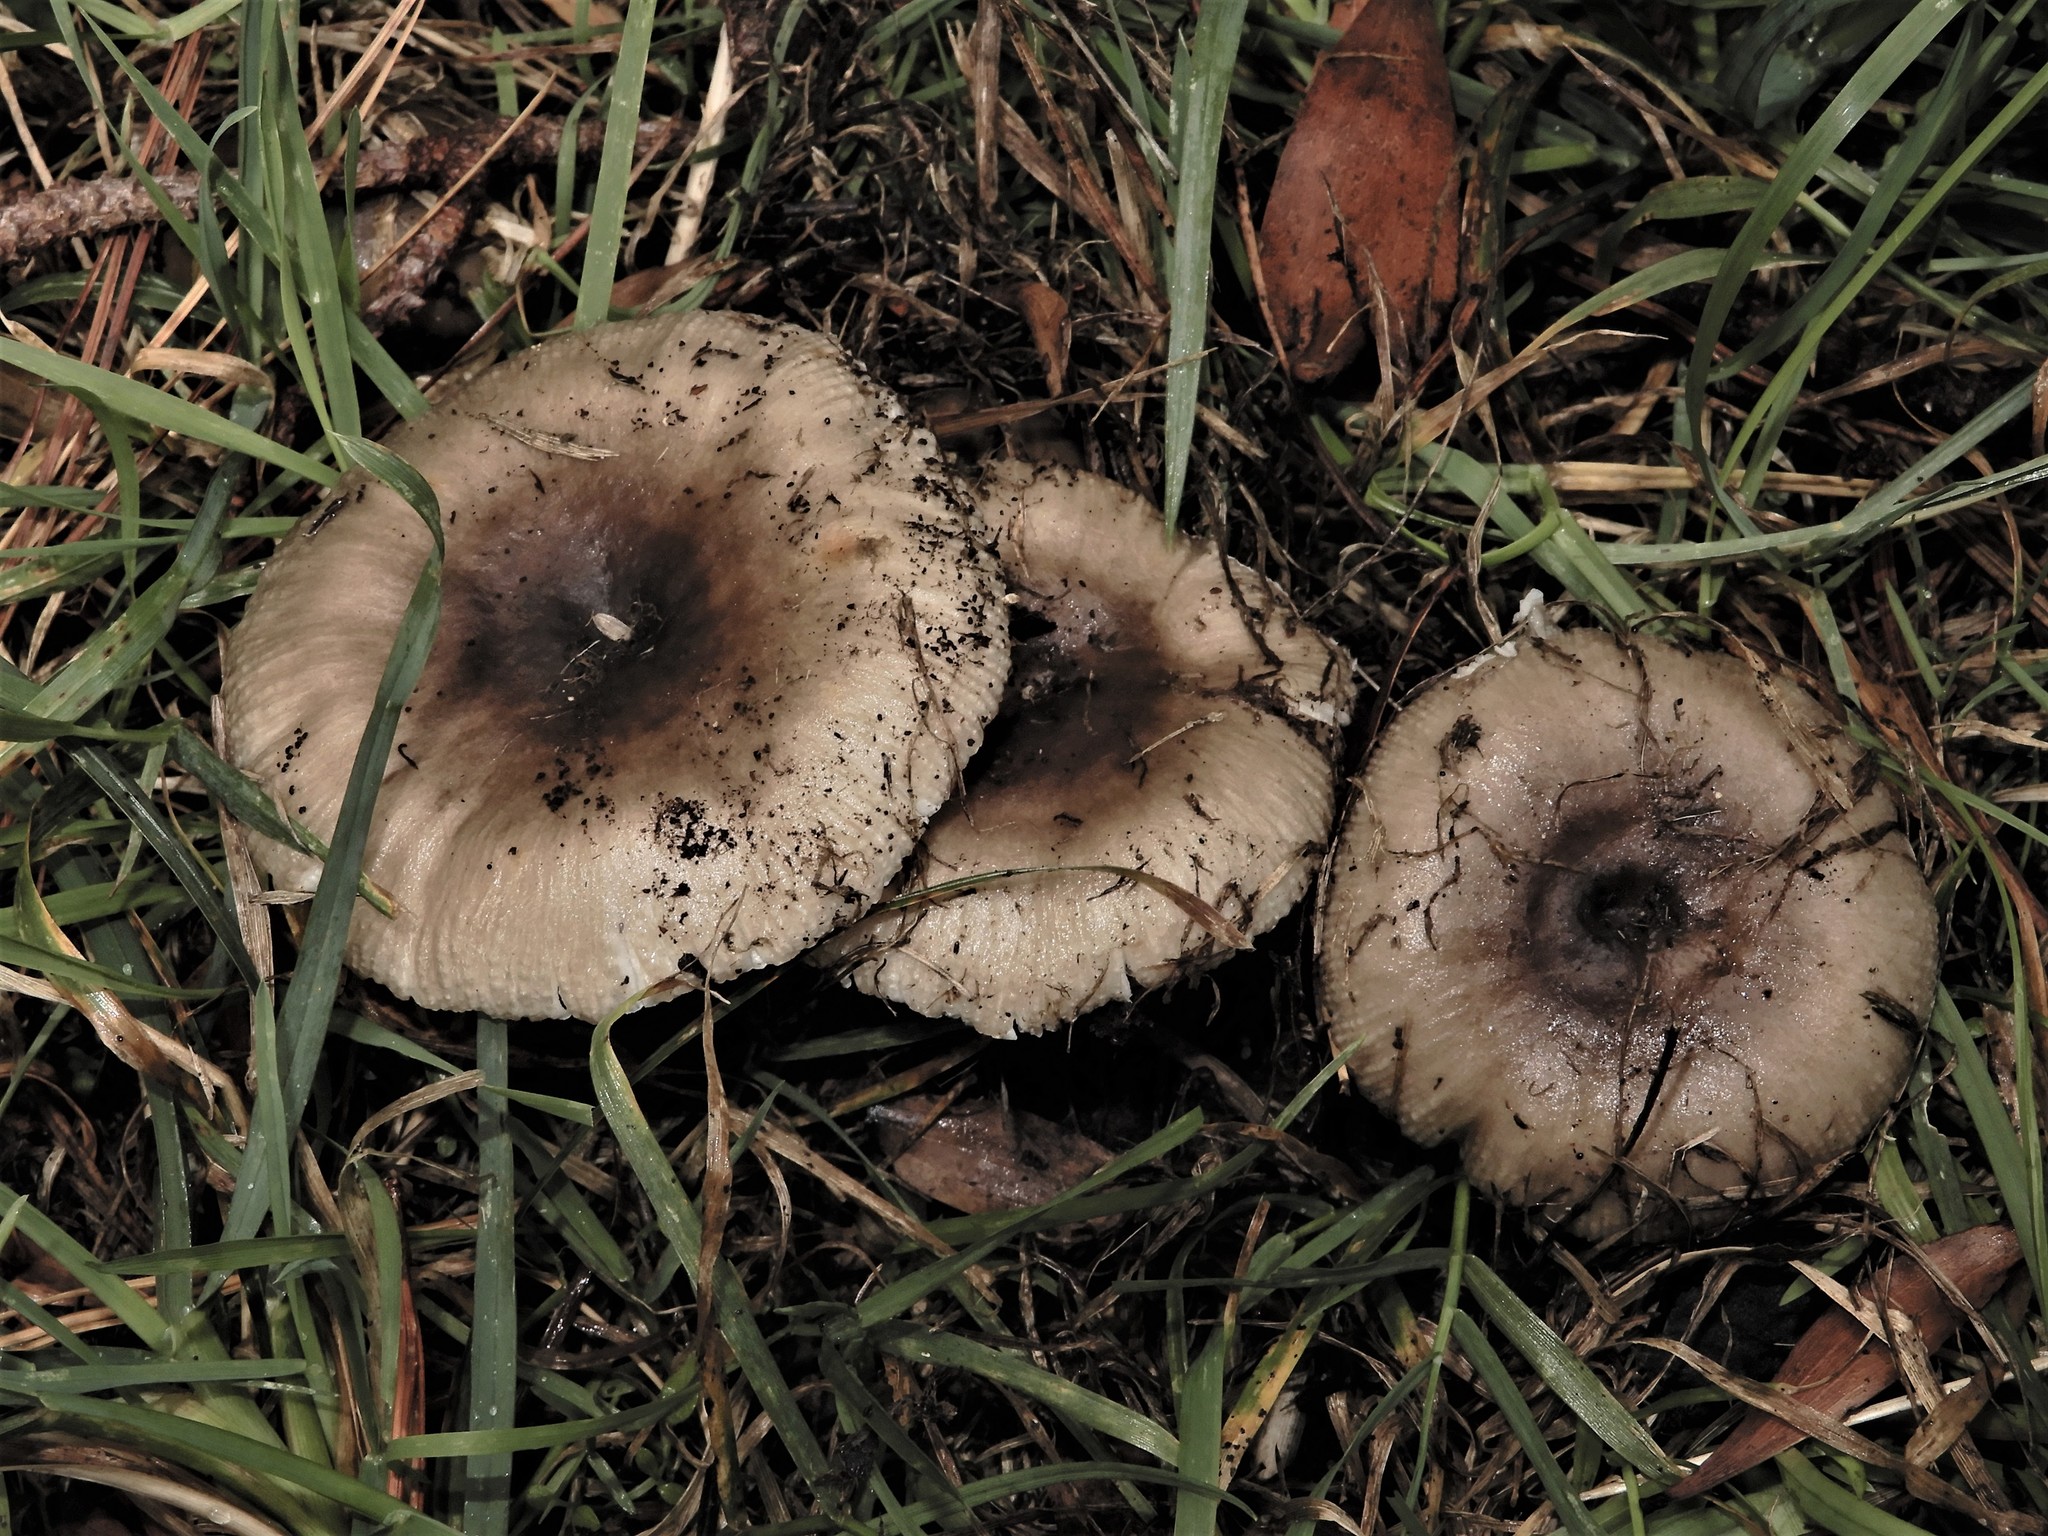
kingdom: Fungi
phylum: Basidiomycota
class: Agaricomycetes
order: Russulales
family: Russulaceae
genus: Russula
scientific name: Russula amoenolens
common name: Camembert brittlegill
